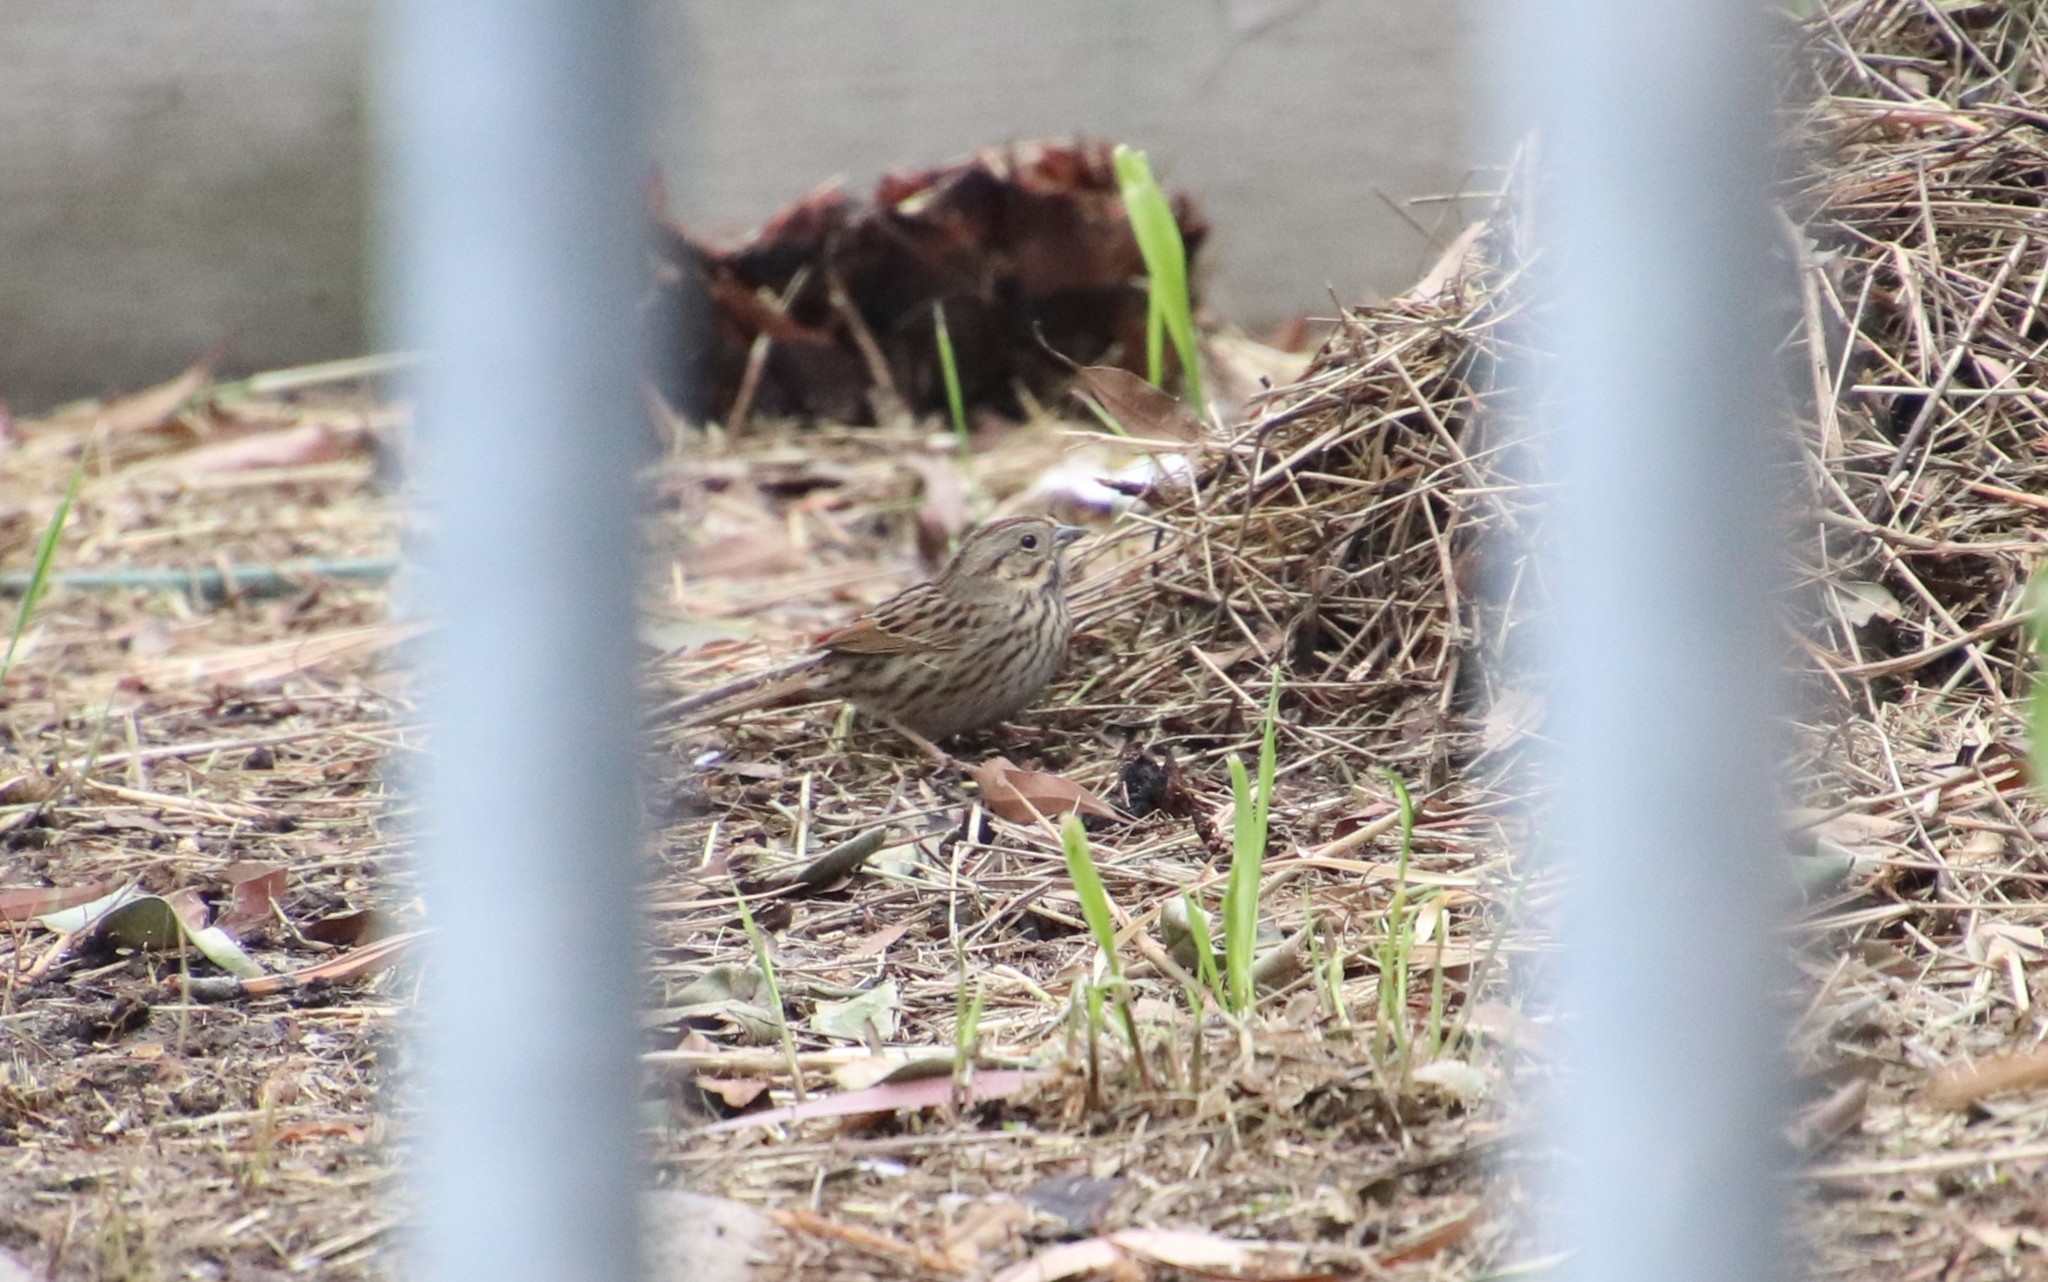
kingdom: Animalia
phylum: Chordata
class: Aves
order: Passeriformes
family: Passerellidae
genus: Melospiza
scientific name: Melospiza lincolnii
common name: Lincoln's sparrow
